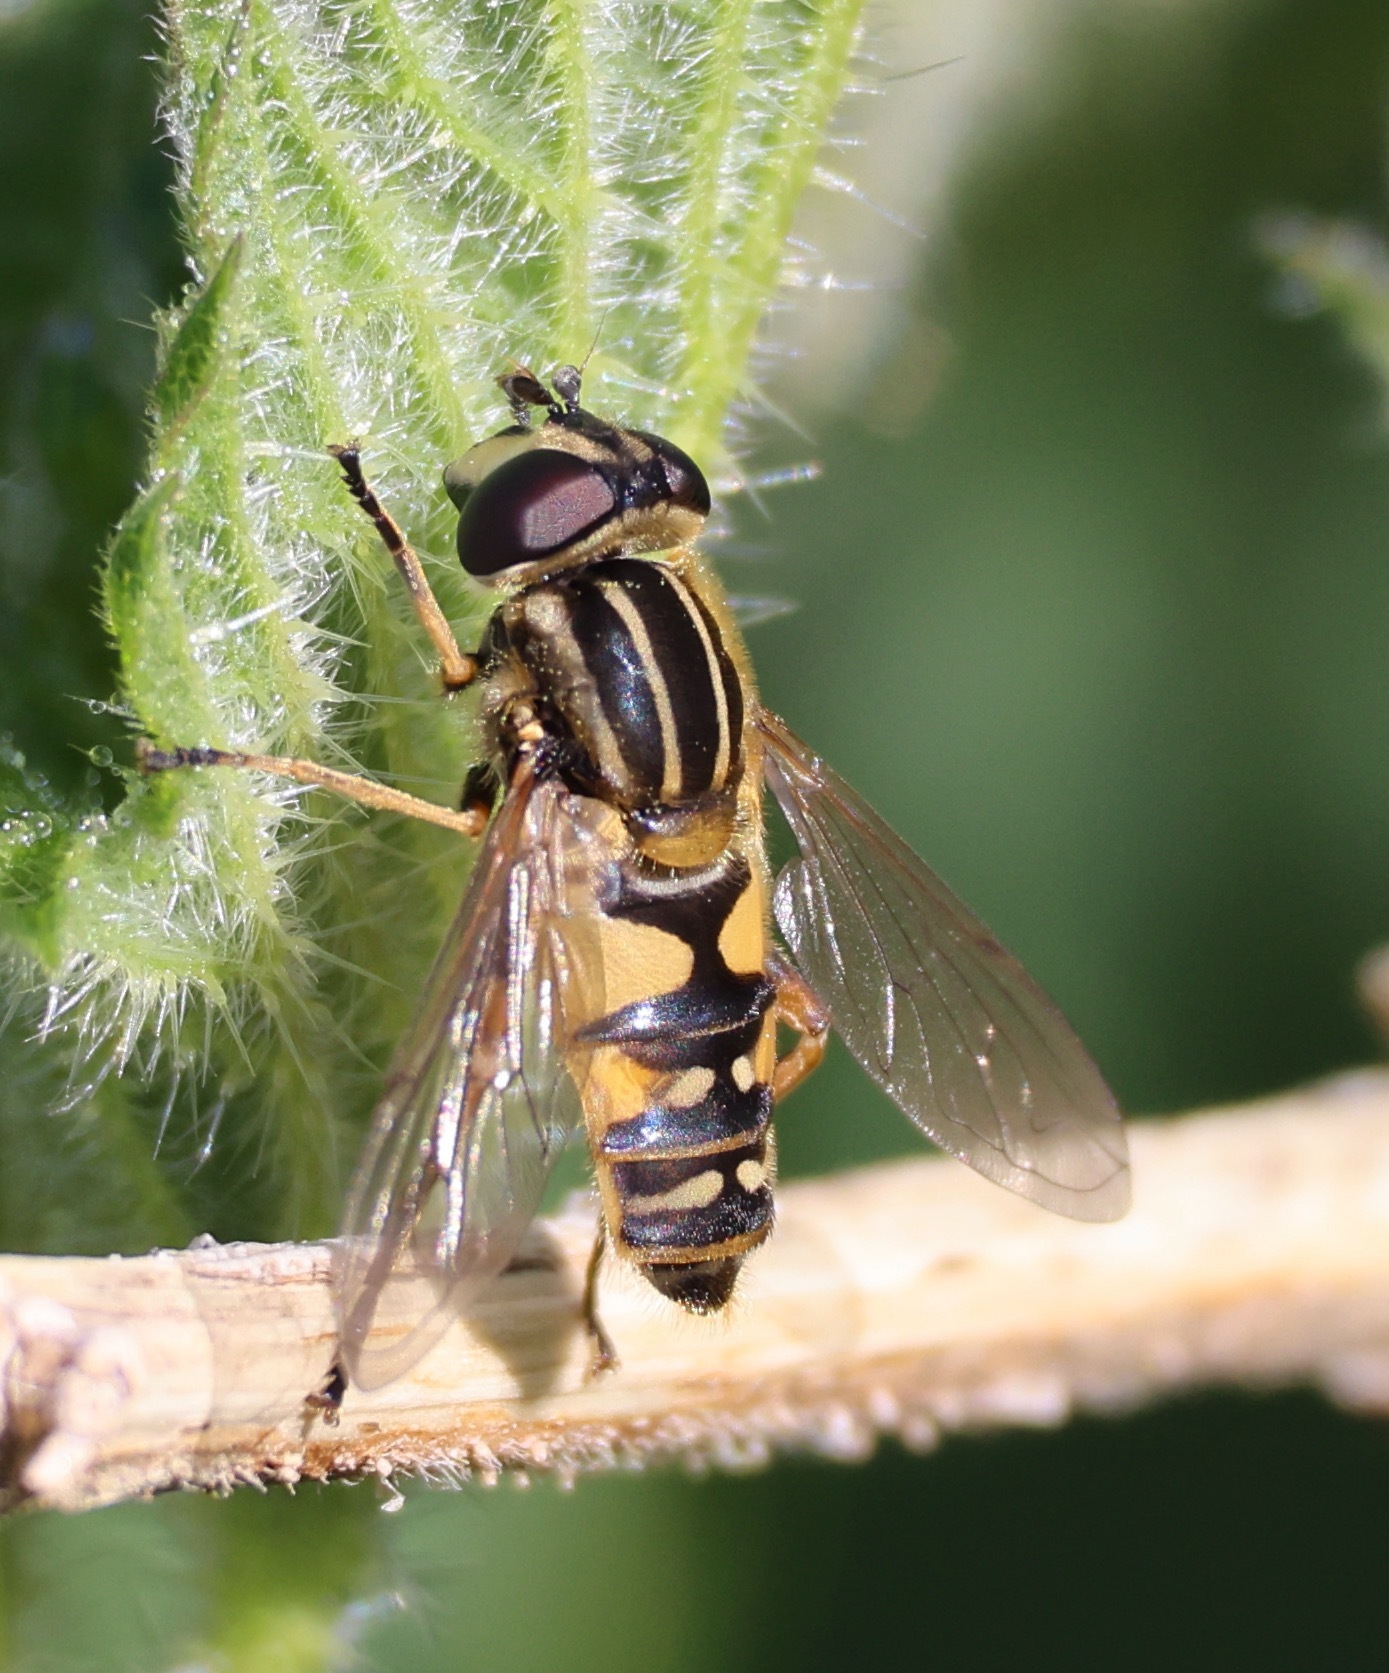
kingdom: Animalia
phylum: Arthropoda
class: Insecta
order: Diptera
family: Syrphidae
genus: Helophilus
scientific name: Helophilus pendulus
